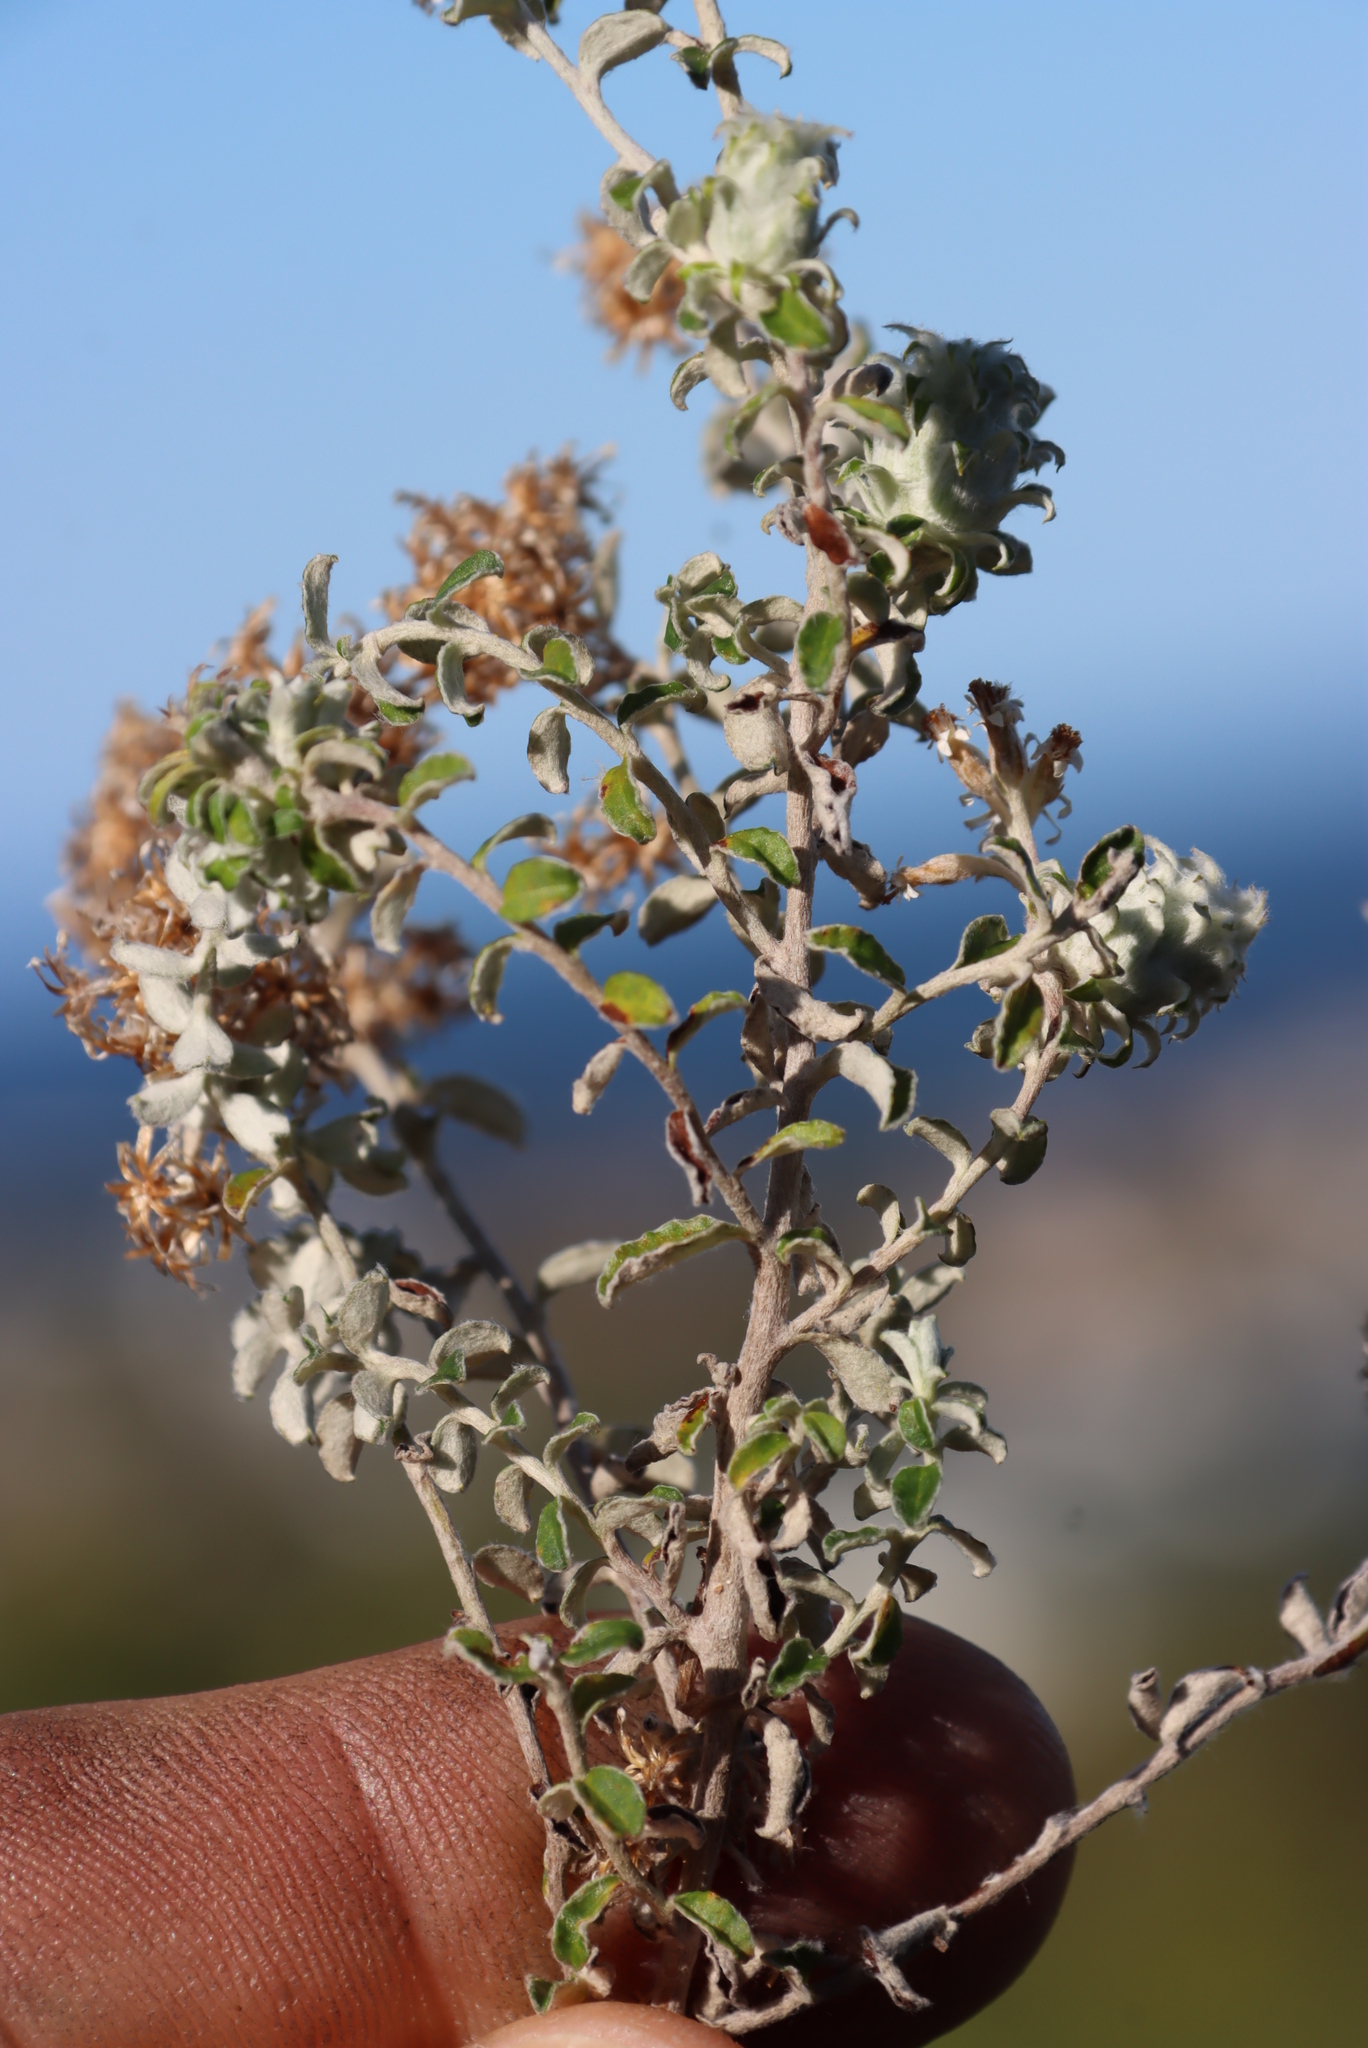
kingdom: Plantae
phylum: Tracheophyta
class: Magnoliopsida
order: Asterales
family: Asteraceae
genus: Plecostachys
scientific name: Plecostachys serpyllifolia
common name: Petite licorice
